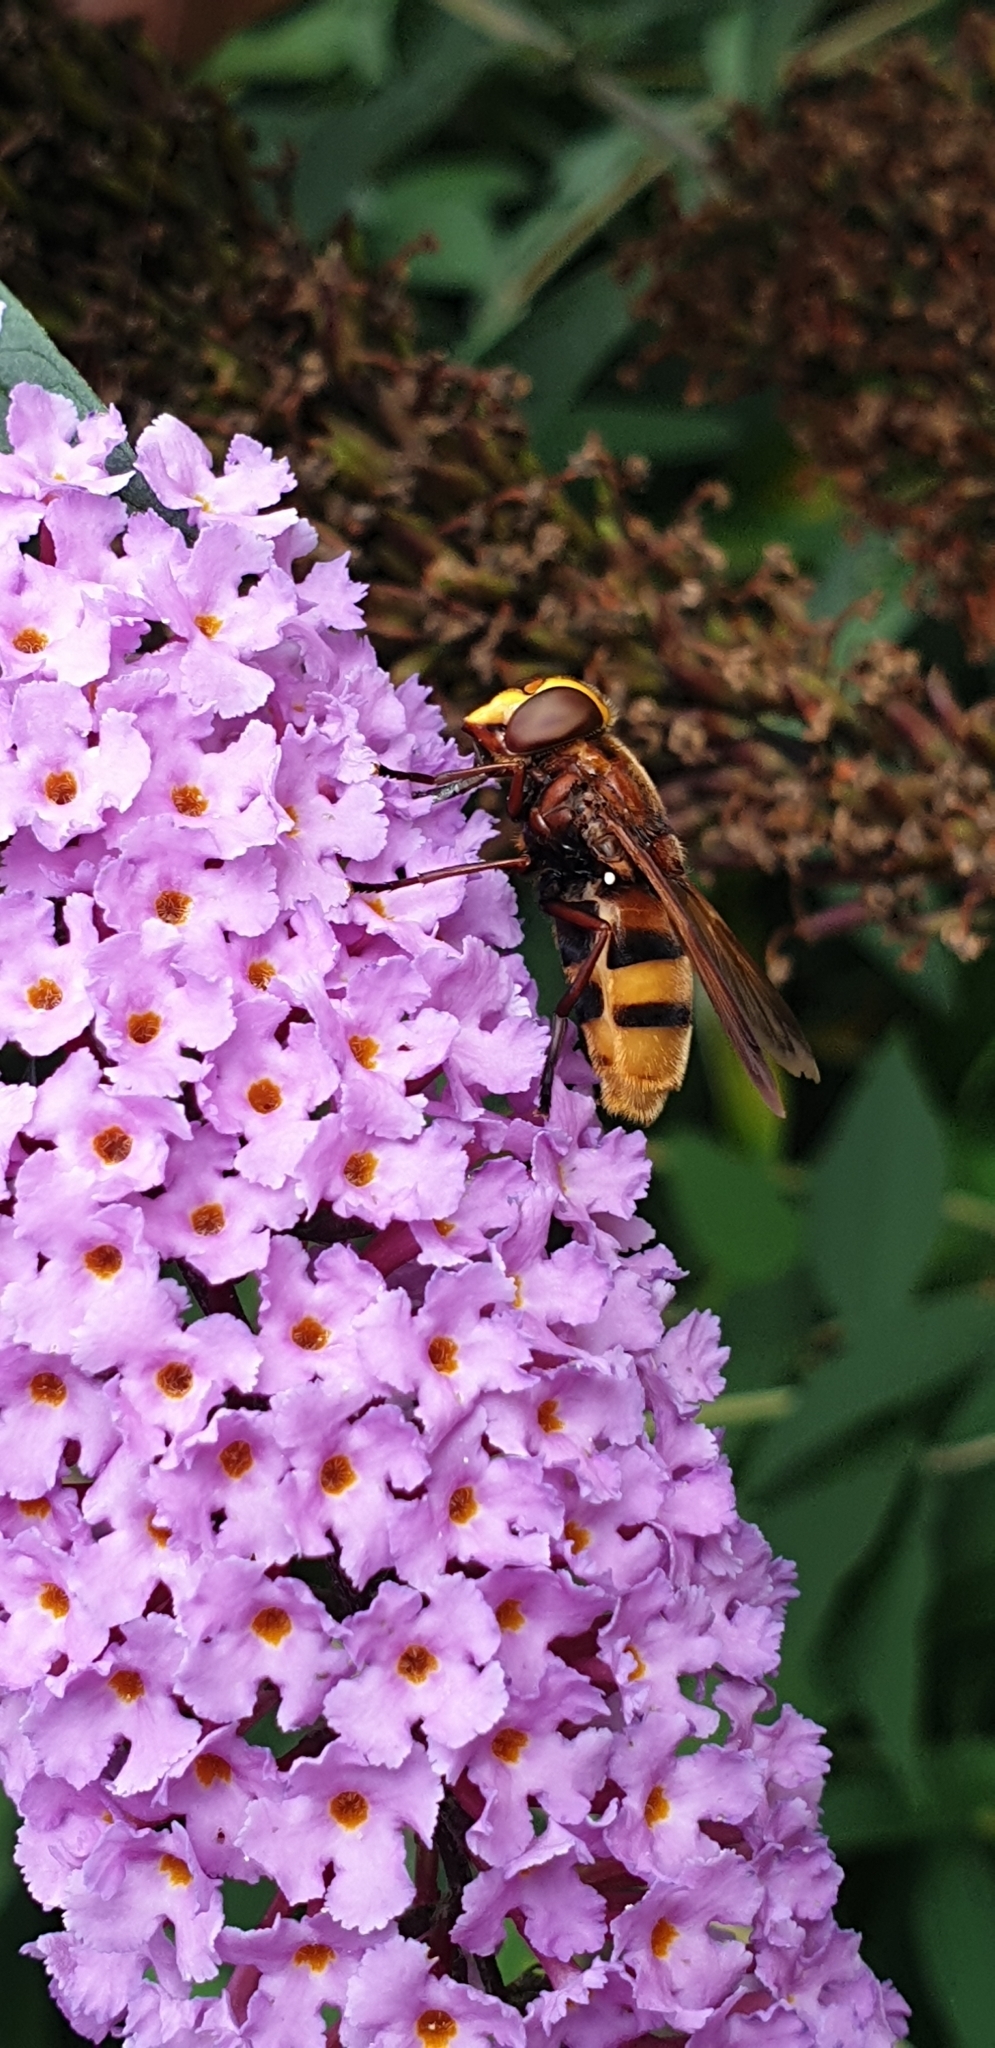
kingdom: Animalia
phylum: Arthropoda
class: Insecta
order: Diptera
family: Syrphidae
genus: Volucella
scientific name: Volucella zonaria
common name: Hornet hoverfly
